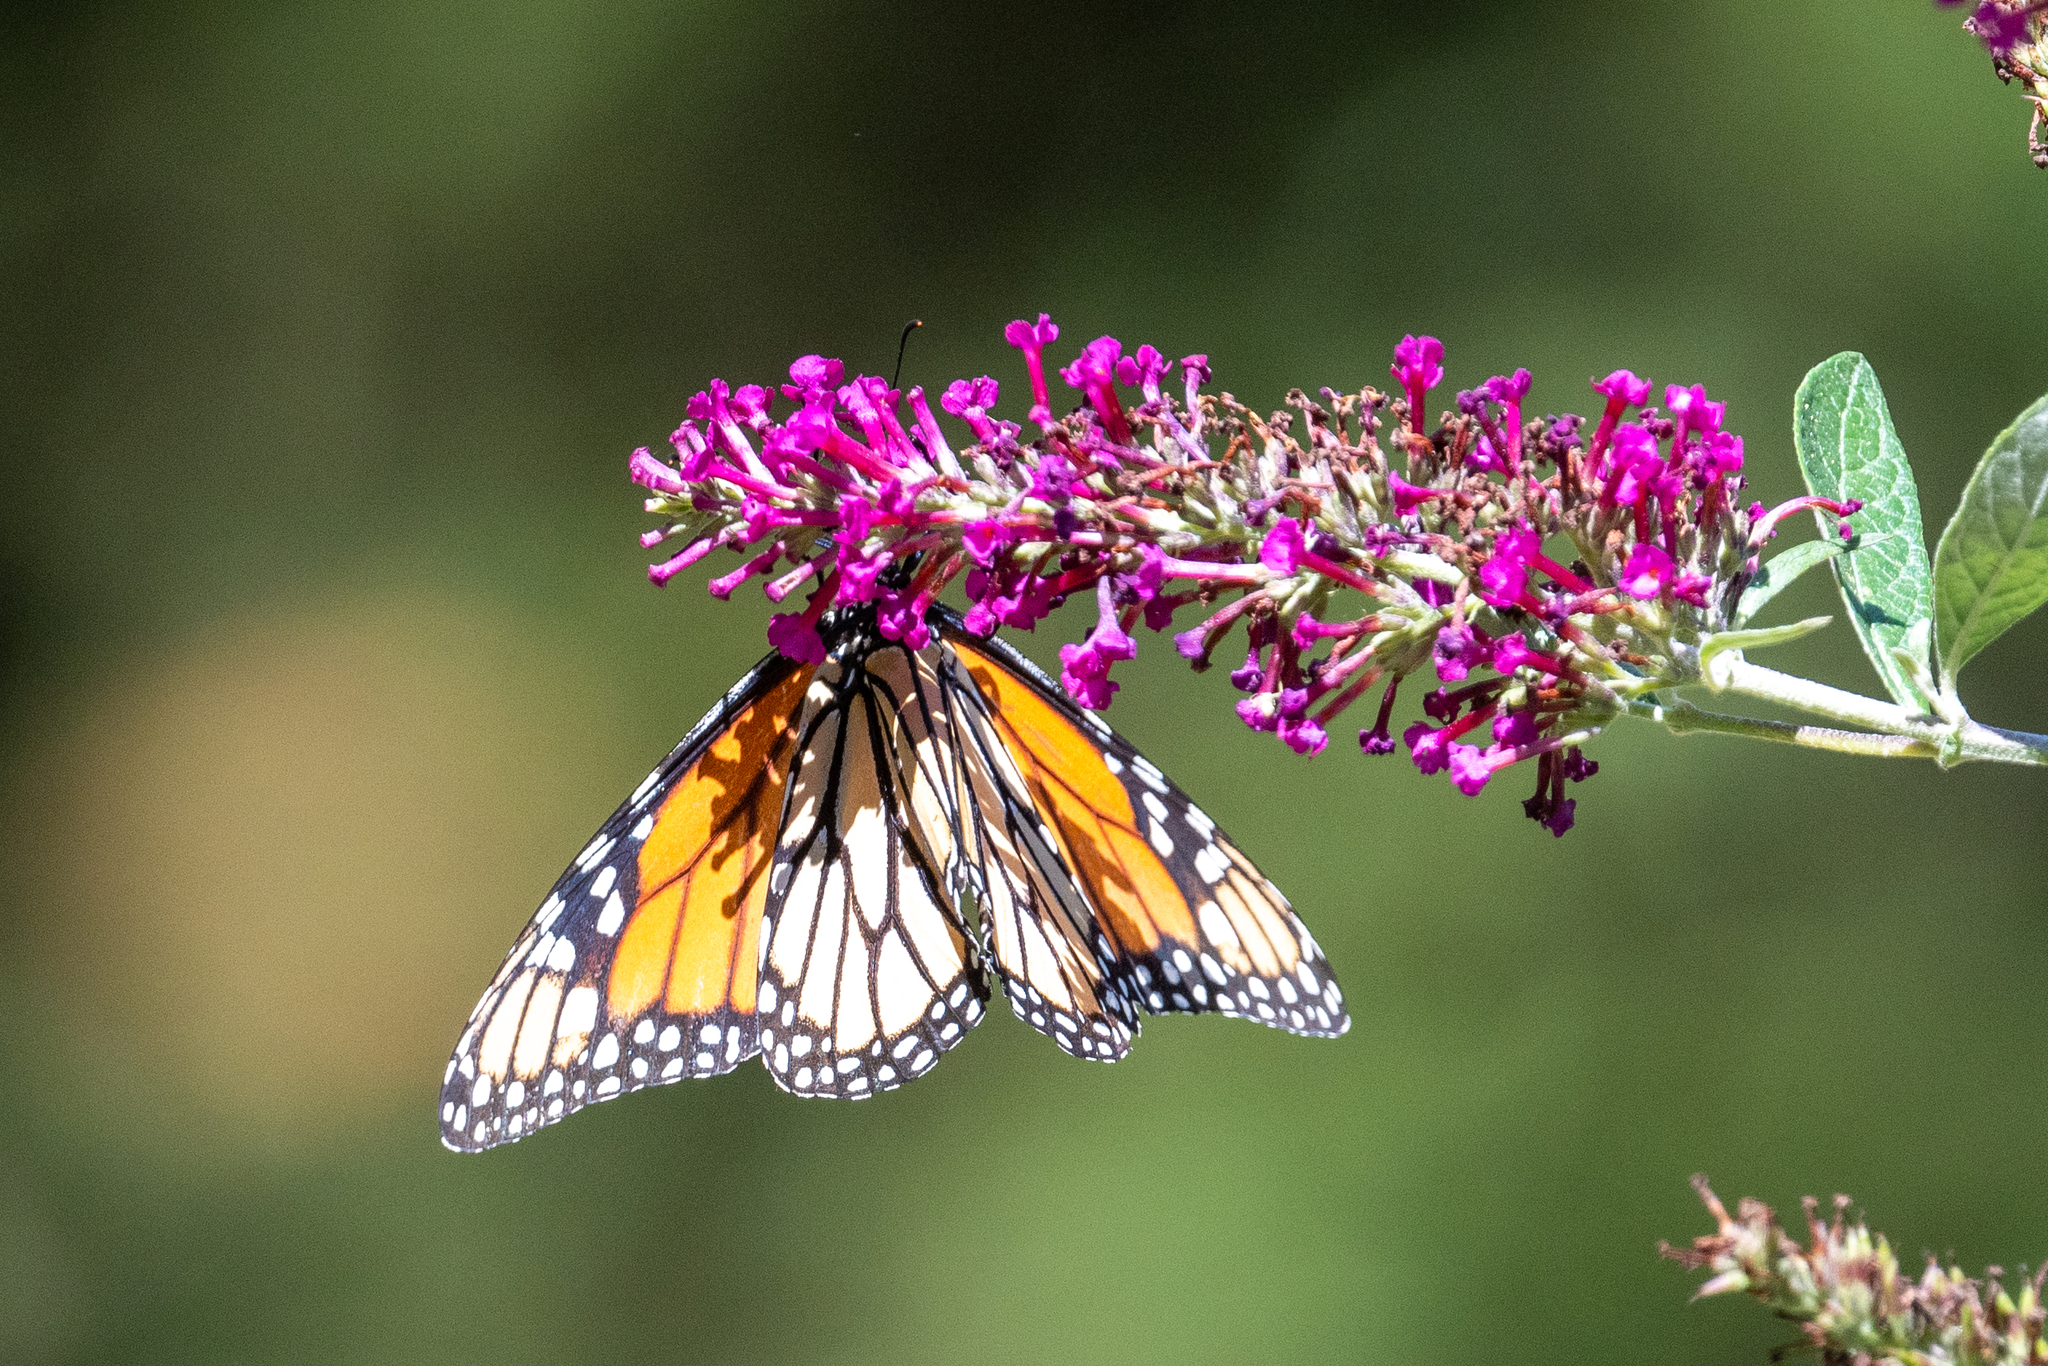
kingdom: Animalia
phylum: Arthropoda
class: Insecta
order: Lepidoptera
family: Nymphalidae
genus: Danaus
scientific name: Danaus plexippus
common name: Monarch
